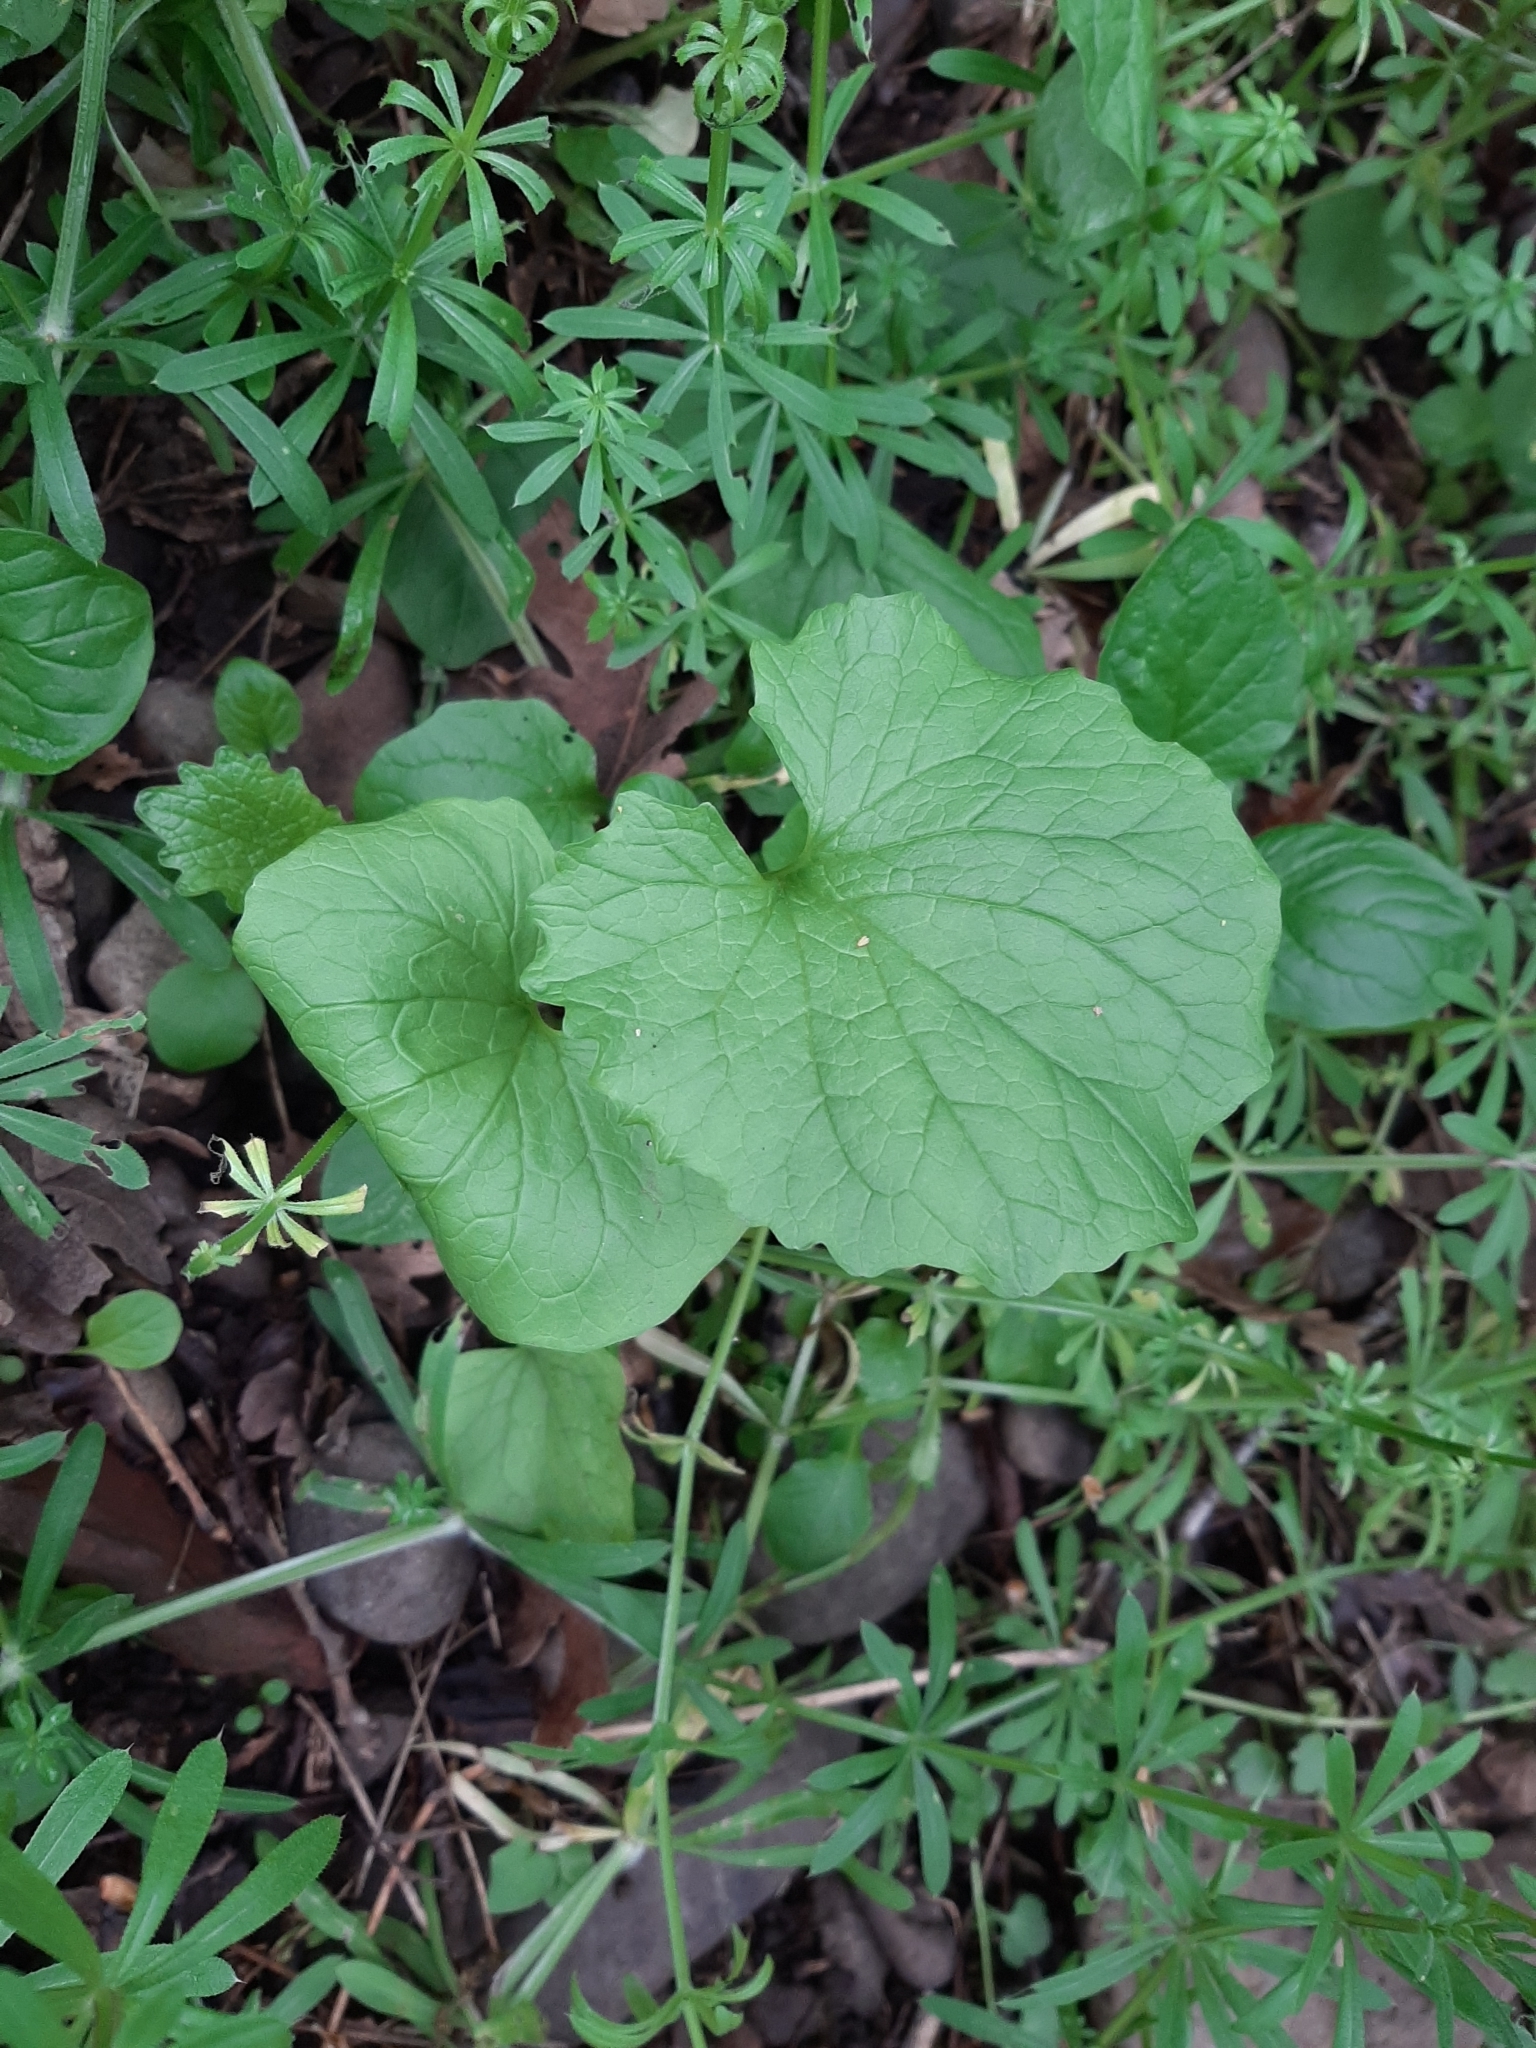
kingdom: Plantae
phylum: Tracheophyta
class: Magnoliopsida
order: Brassicales
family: Brassicaceae
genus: Alliaria
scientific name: Alliaria petiolata
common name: Garlic mustard
